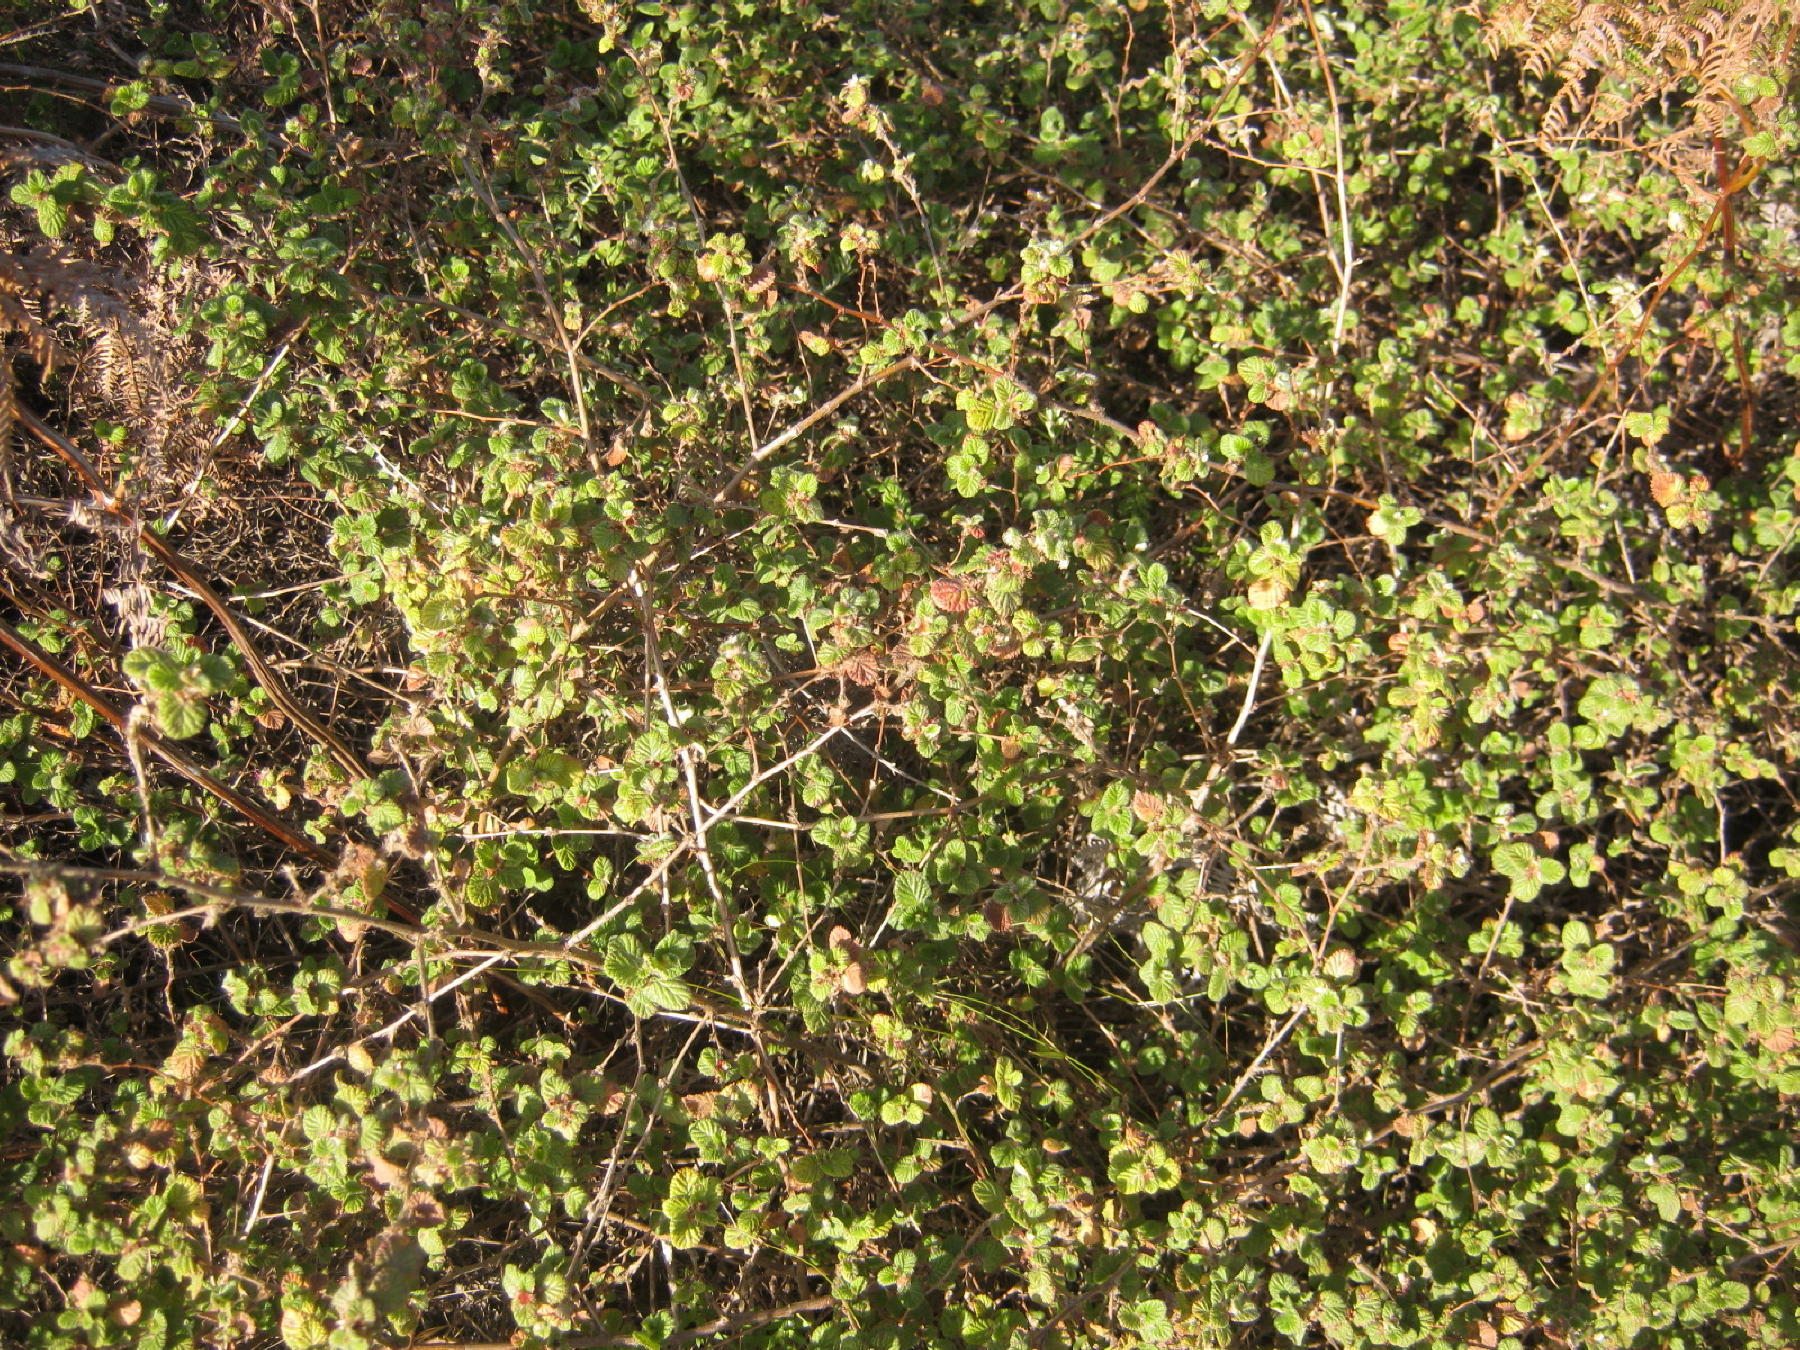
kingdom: Plantae
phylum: Tracheophyta
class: Magnoliopsida
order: Rosales
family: Rosaceae
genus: Cliffortia
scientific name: Cliffortia odorata
